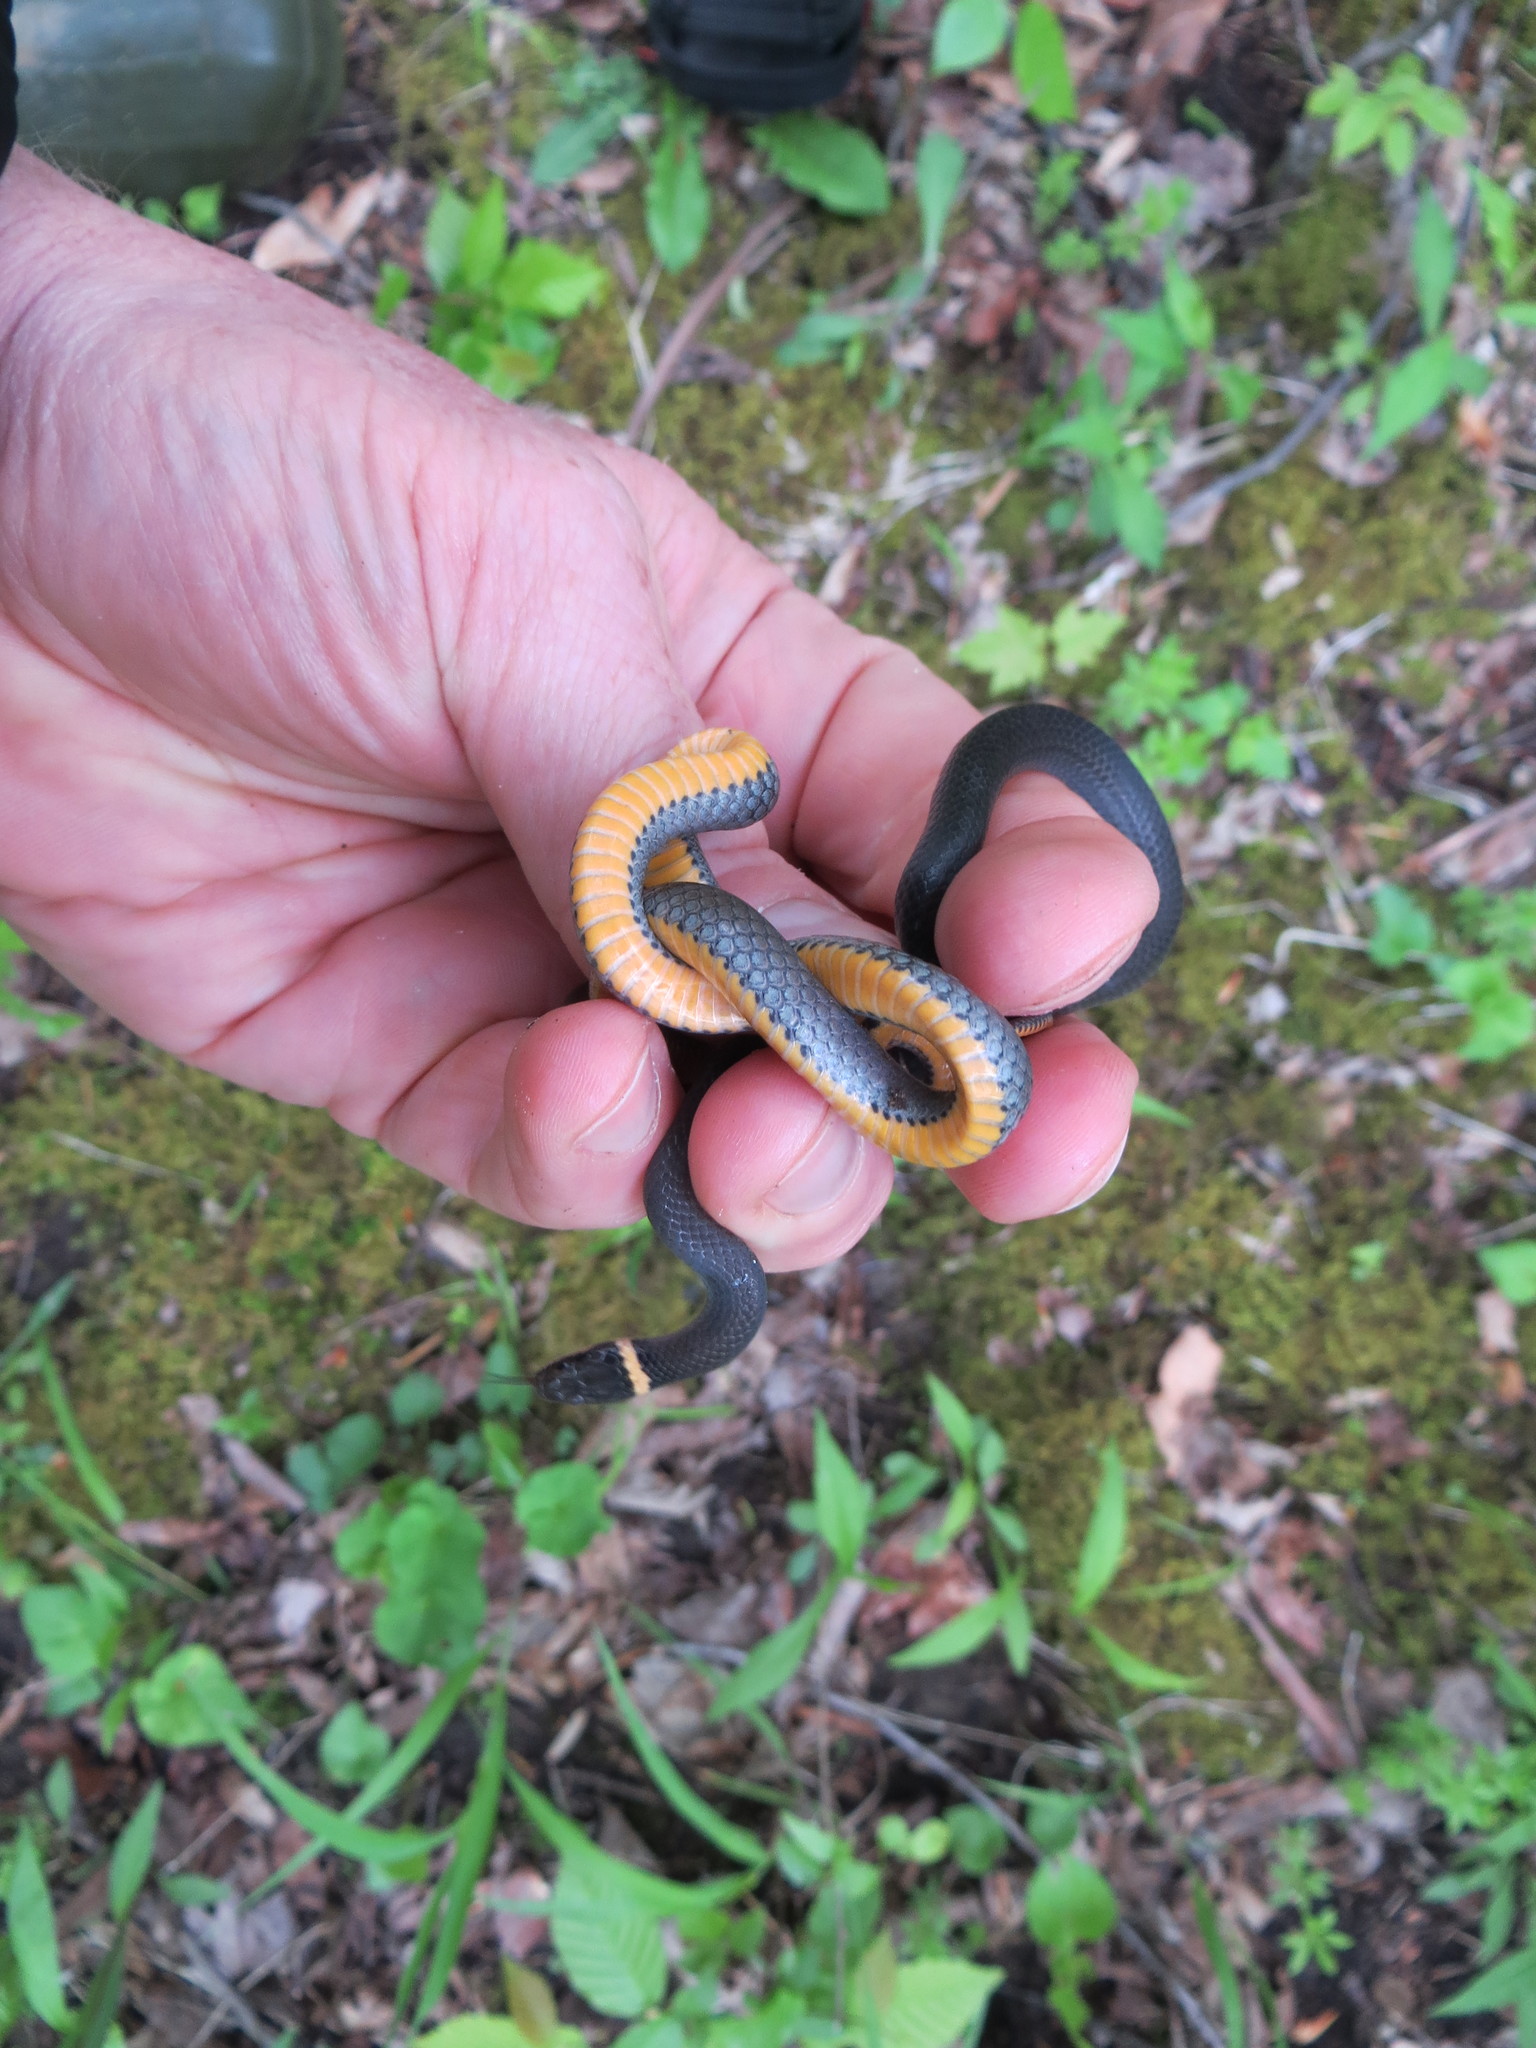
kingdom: Animalia
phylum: Chordata
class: Squamata
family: Colubridae
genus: Diadophis
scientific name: Diadophis punctatus
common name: Ringneck snake
